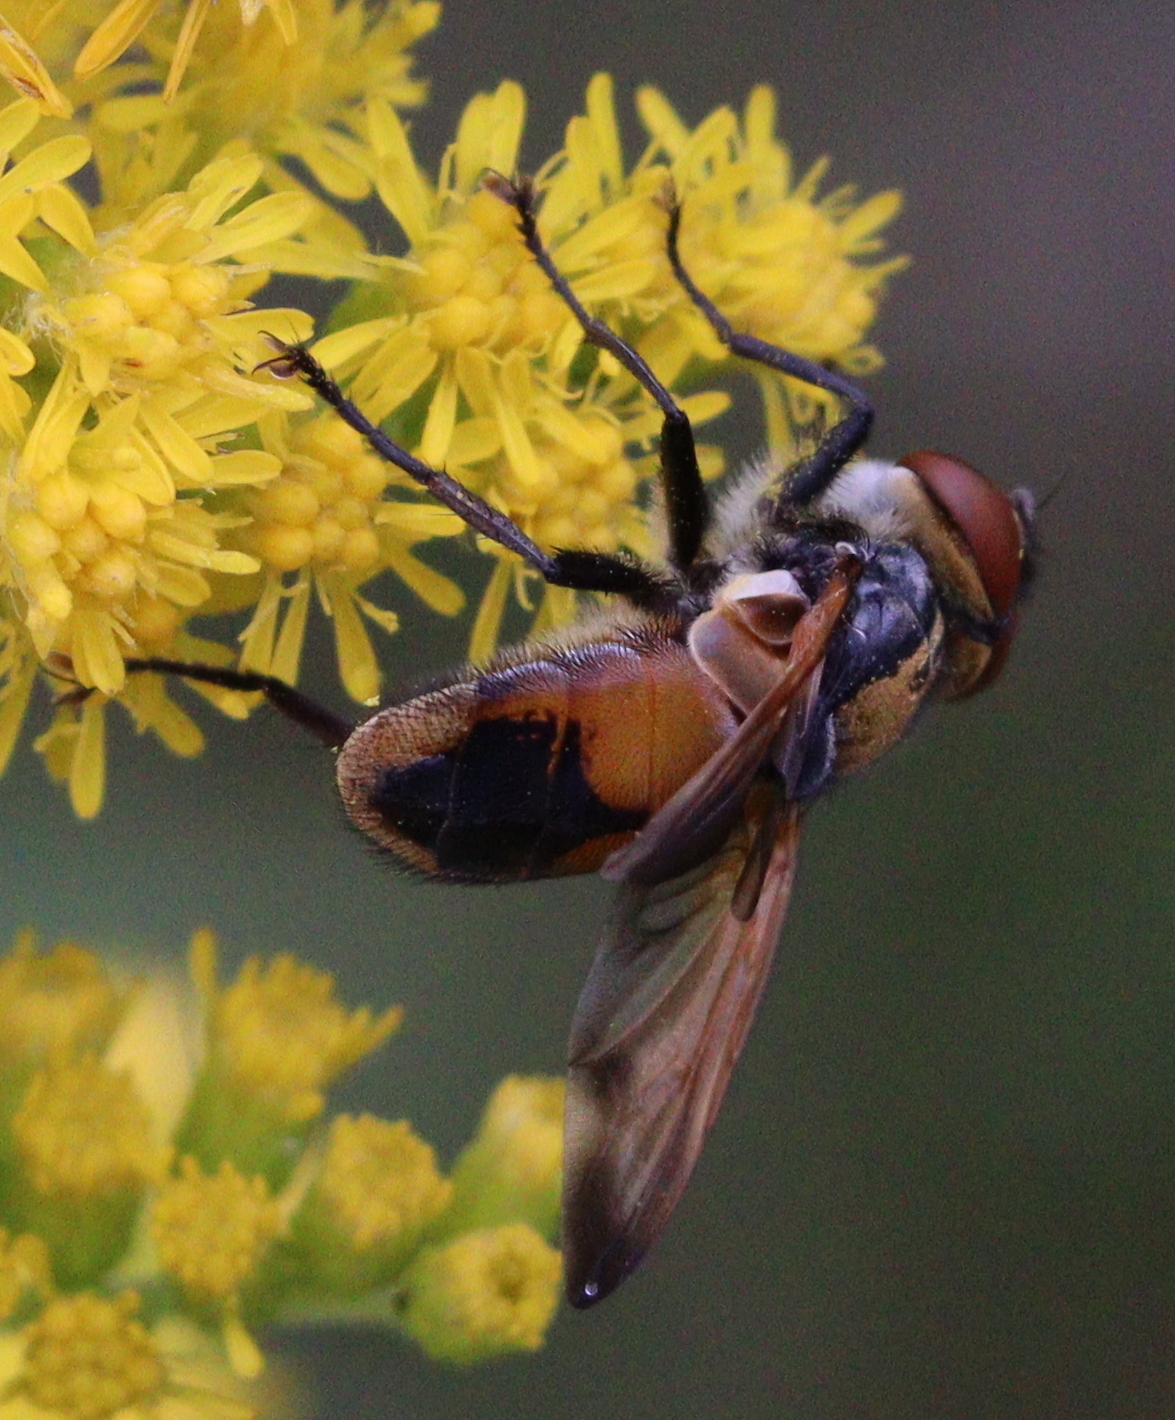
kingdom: Animalia
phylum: Arthropoda
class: Insecta
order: Diptera
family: Tachinidae
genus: Phasia
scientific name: Phasia aurigera
